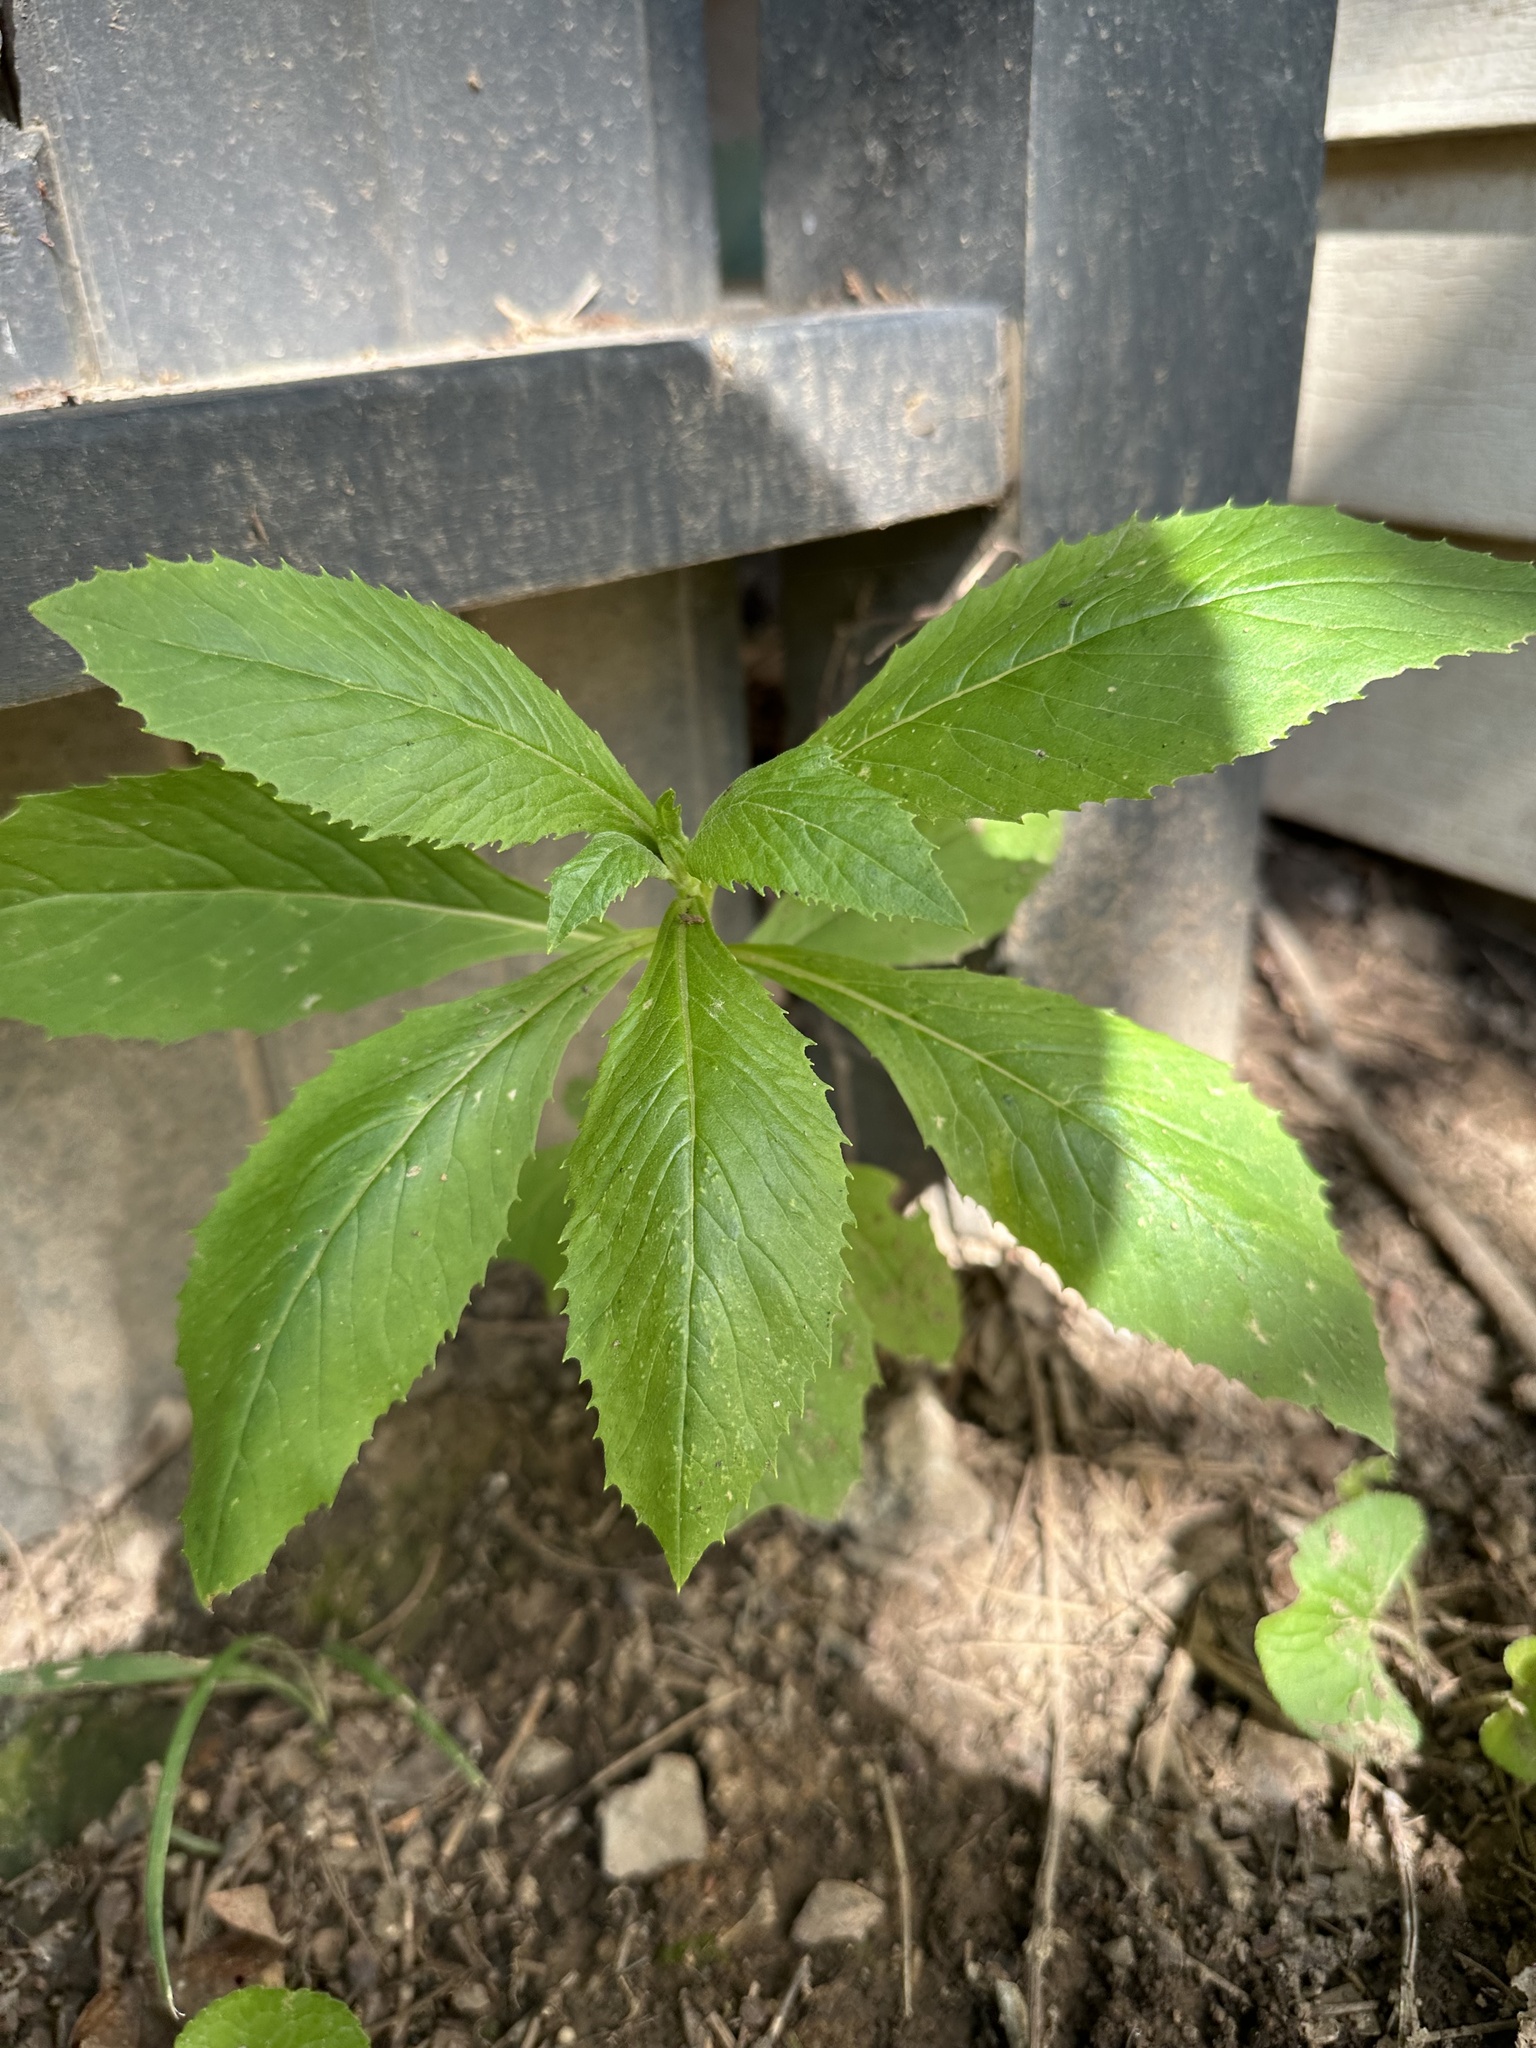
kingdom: Plantae
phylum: Tracheophyta
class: Magnoliopsida
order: Asterales
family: Asteraceae
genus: Erechtites
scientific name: Erechtites hieraciifolius
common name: American burnweed
